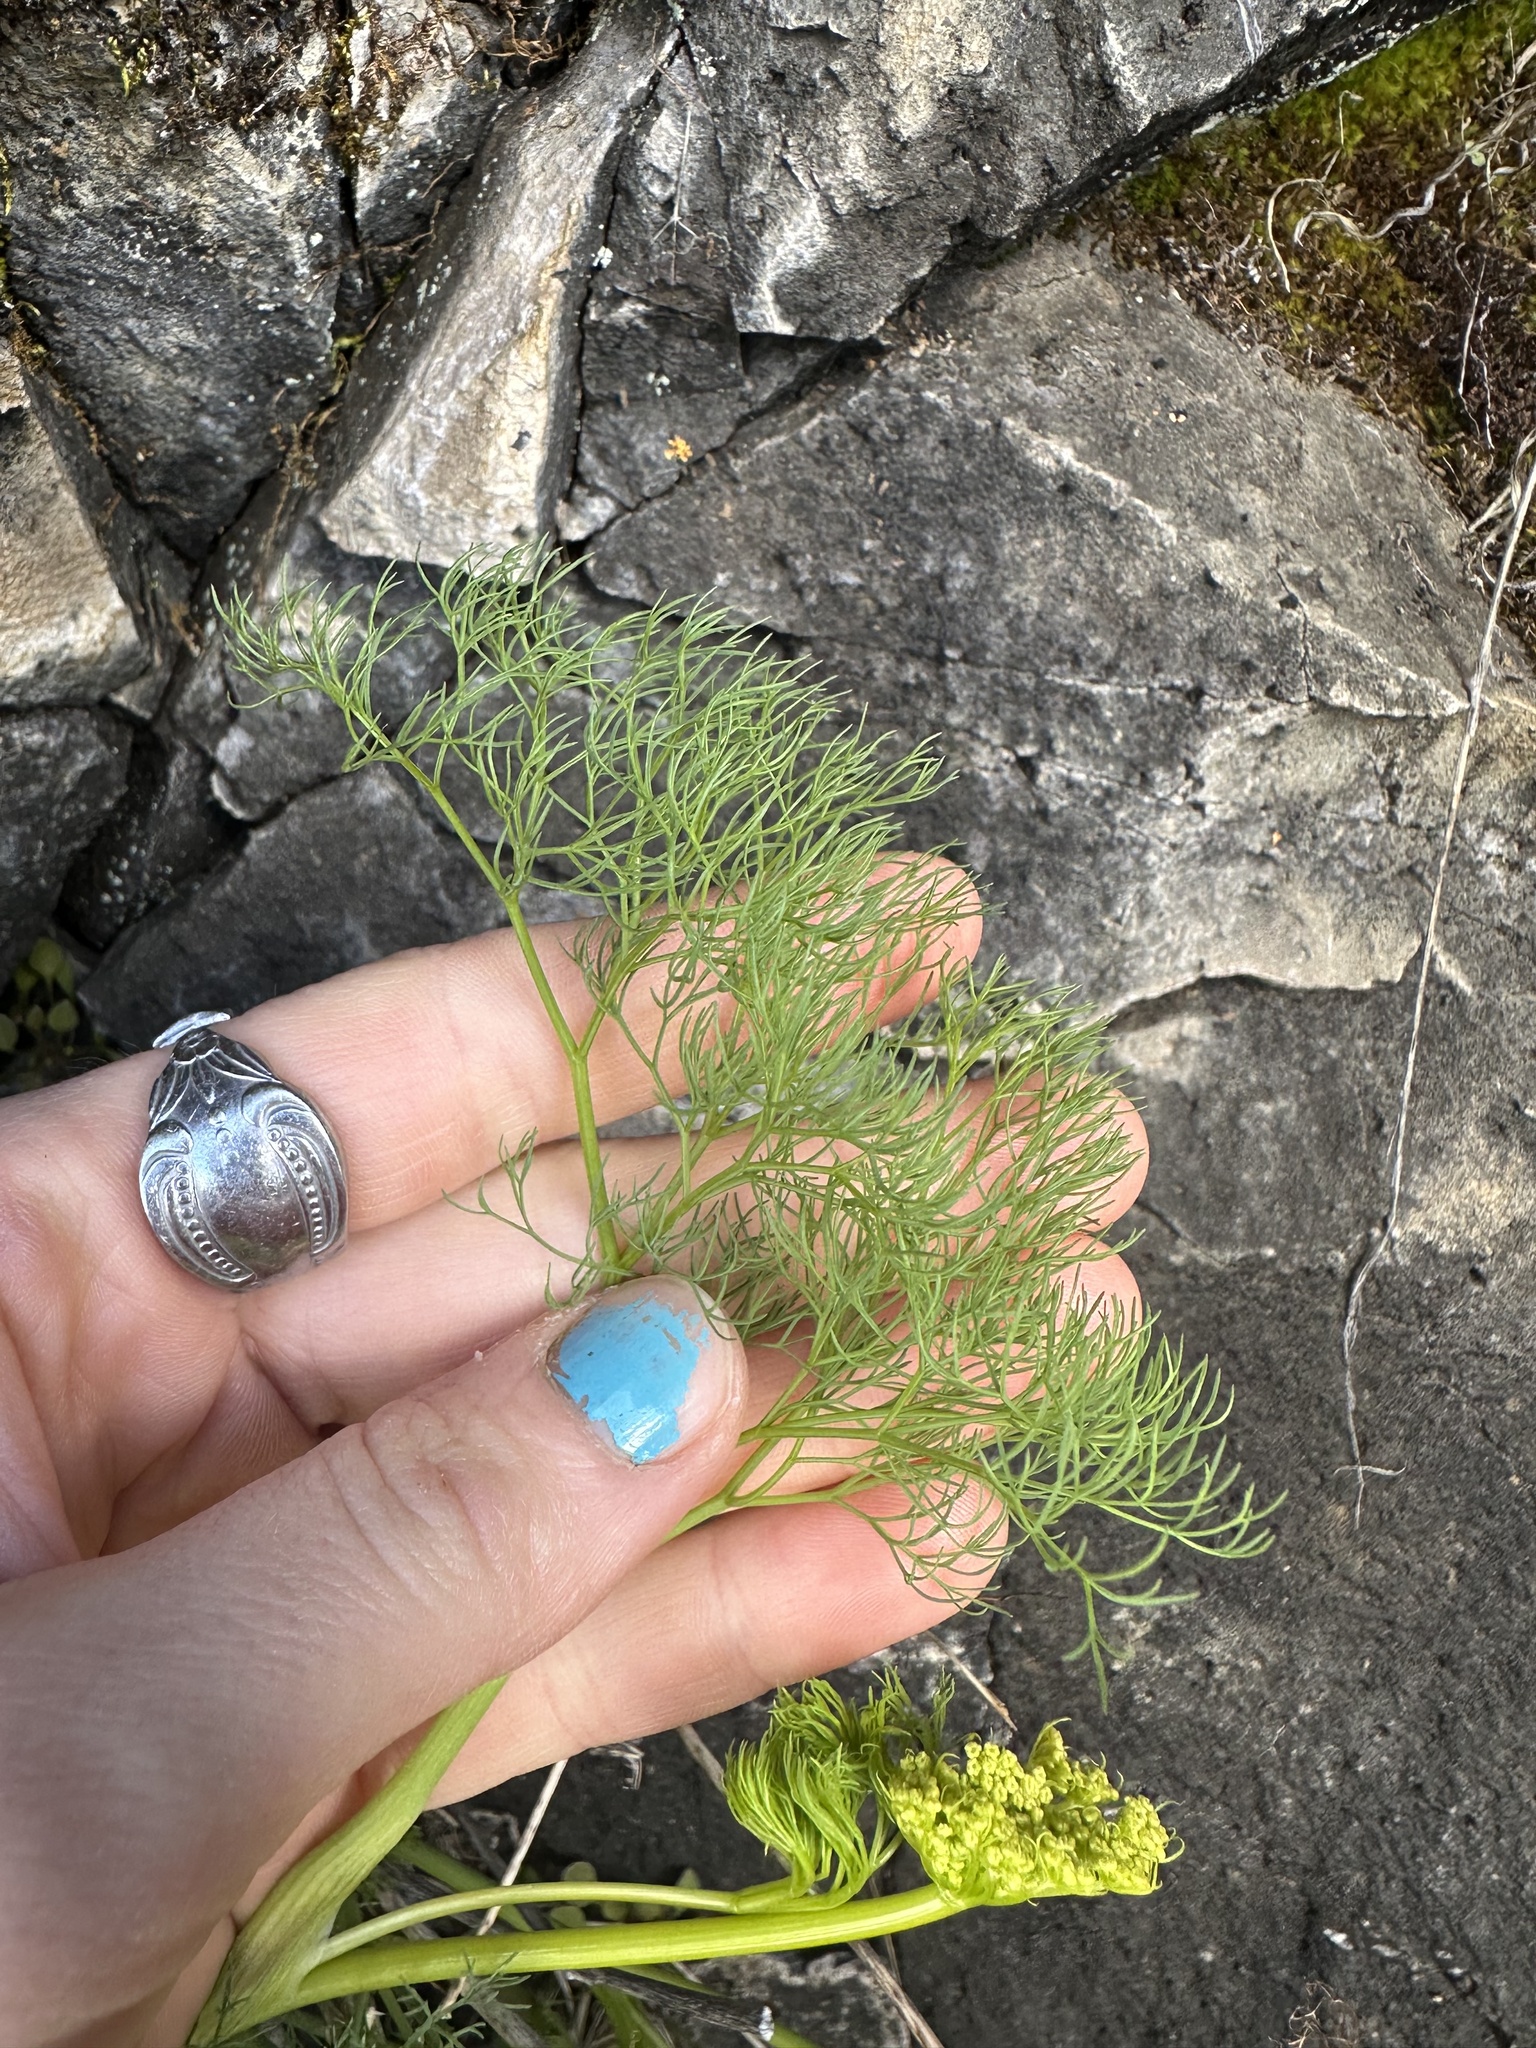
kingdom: Plantae
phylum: Tracheophyta
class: Magnoliopsida
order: Apiales
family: Apiaceae
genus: Lomatium
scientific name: Lomatium klickitatense
